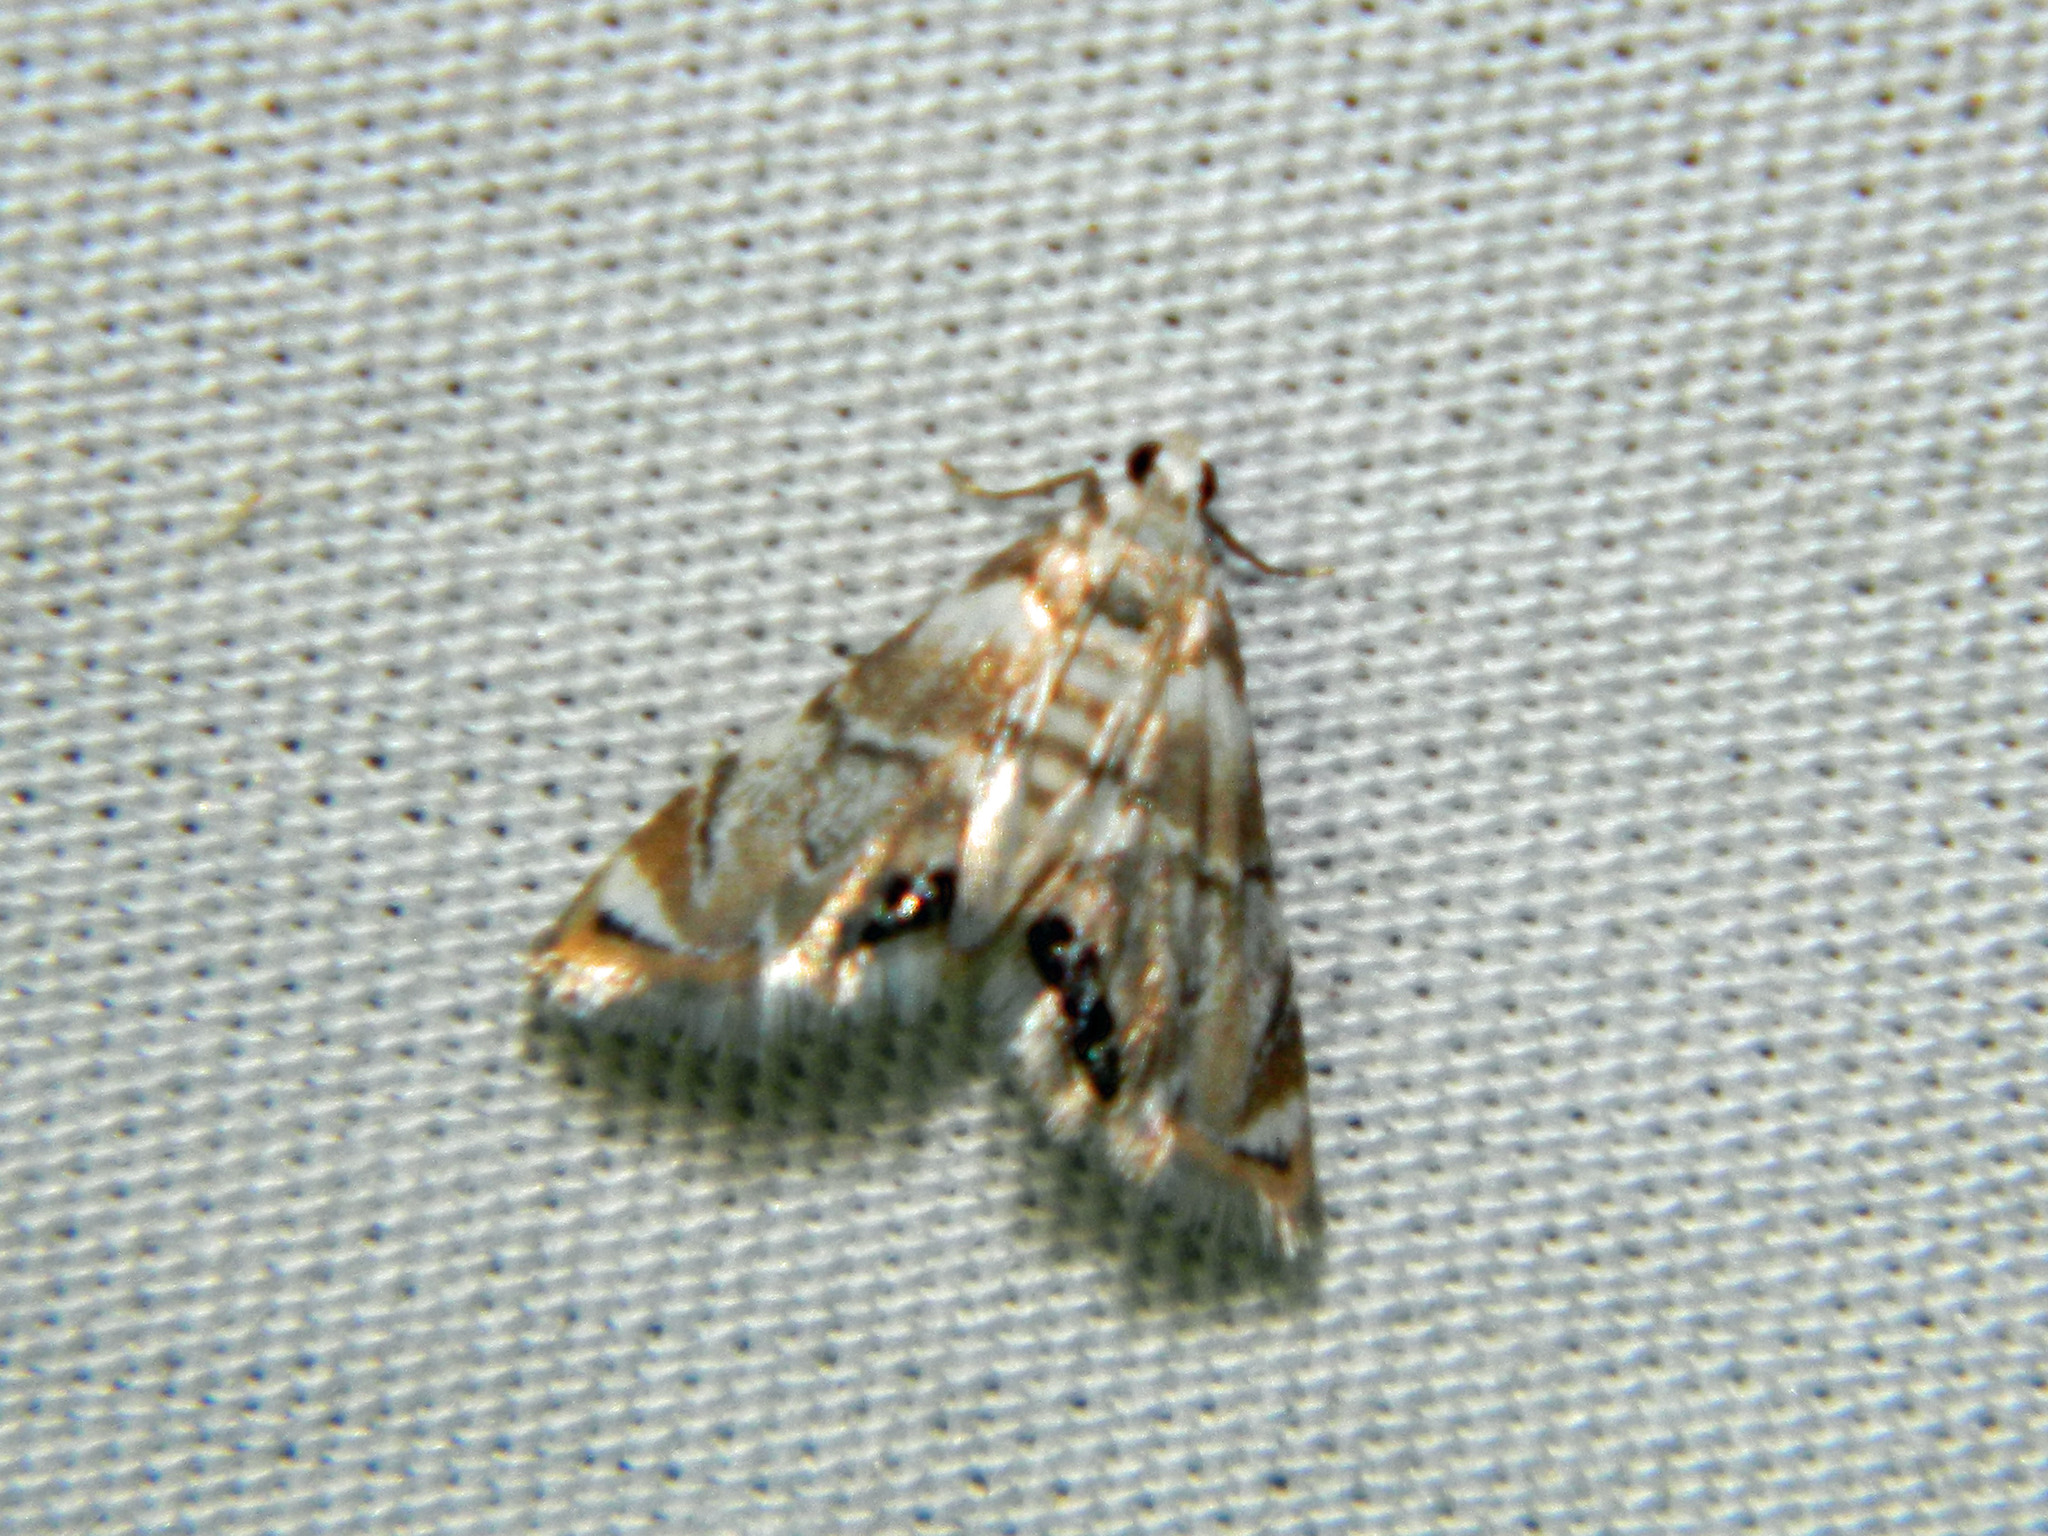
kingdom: Animalia
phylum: Arthropoda
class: Insecta
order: Lepidoptera
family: Crambidae
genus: Eoparargyractis
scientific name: Eoparargyractis plevie
